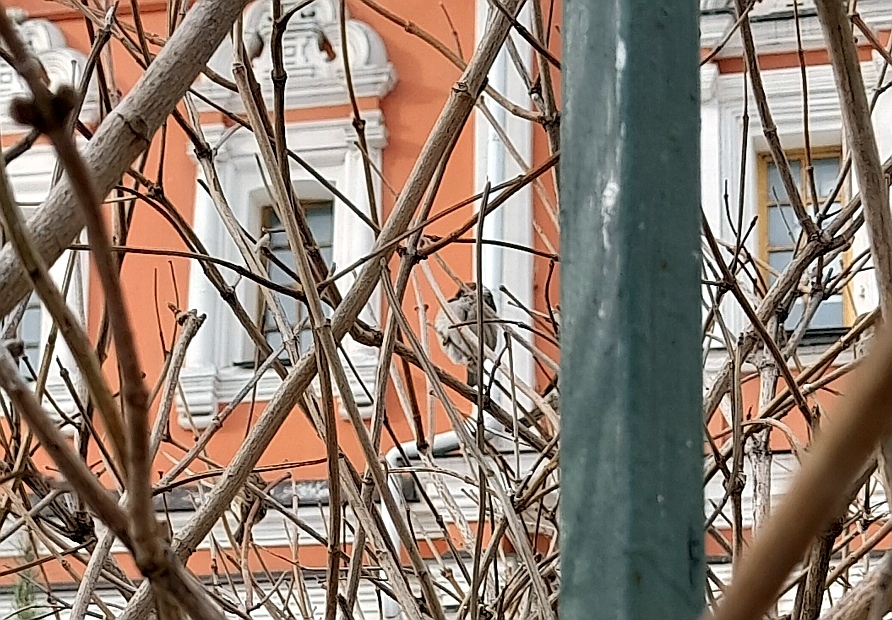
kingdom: Animalia
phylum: Chordata
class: Aves
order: Passeriformes
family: Passeridae
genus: Passer
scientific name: Passer domesticus
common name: House sparrow
